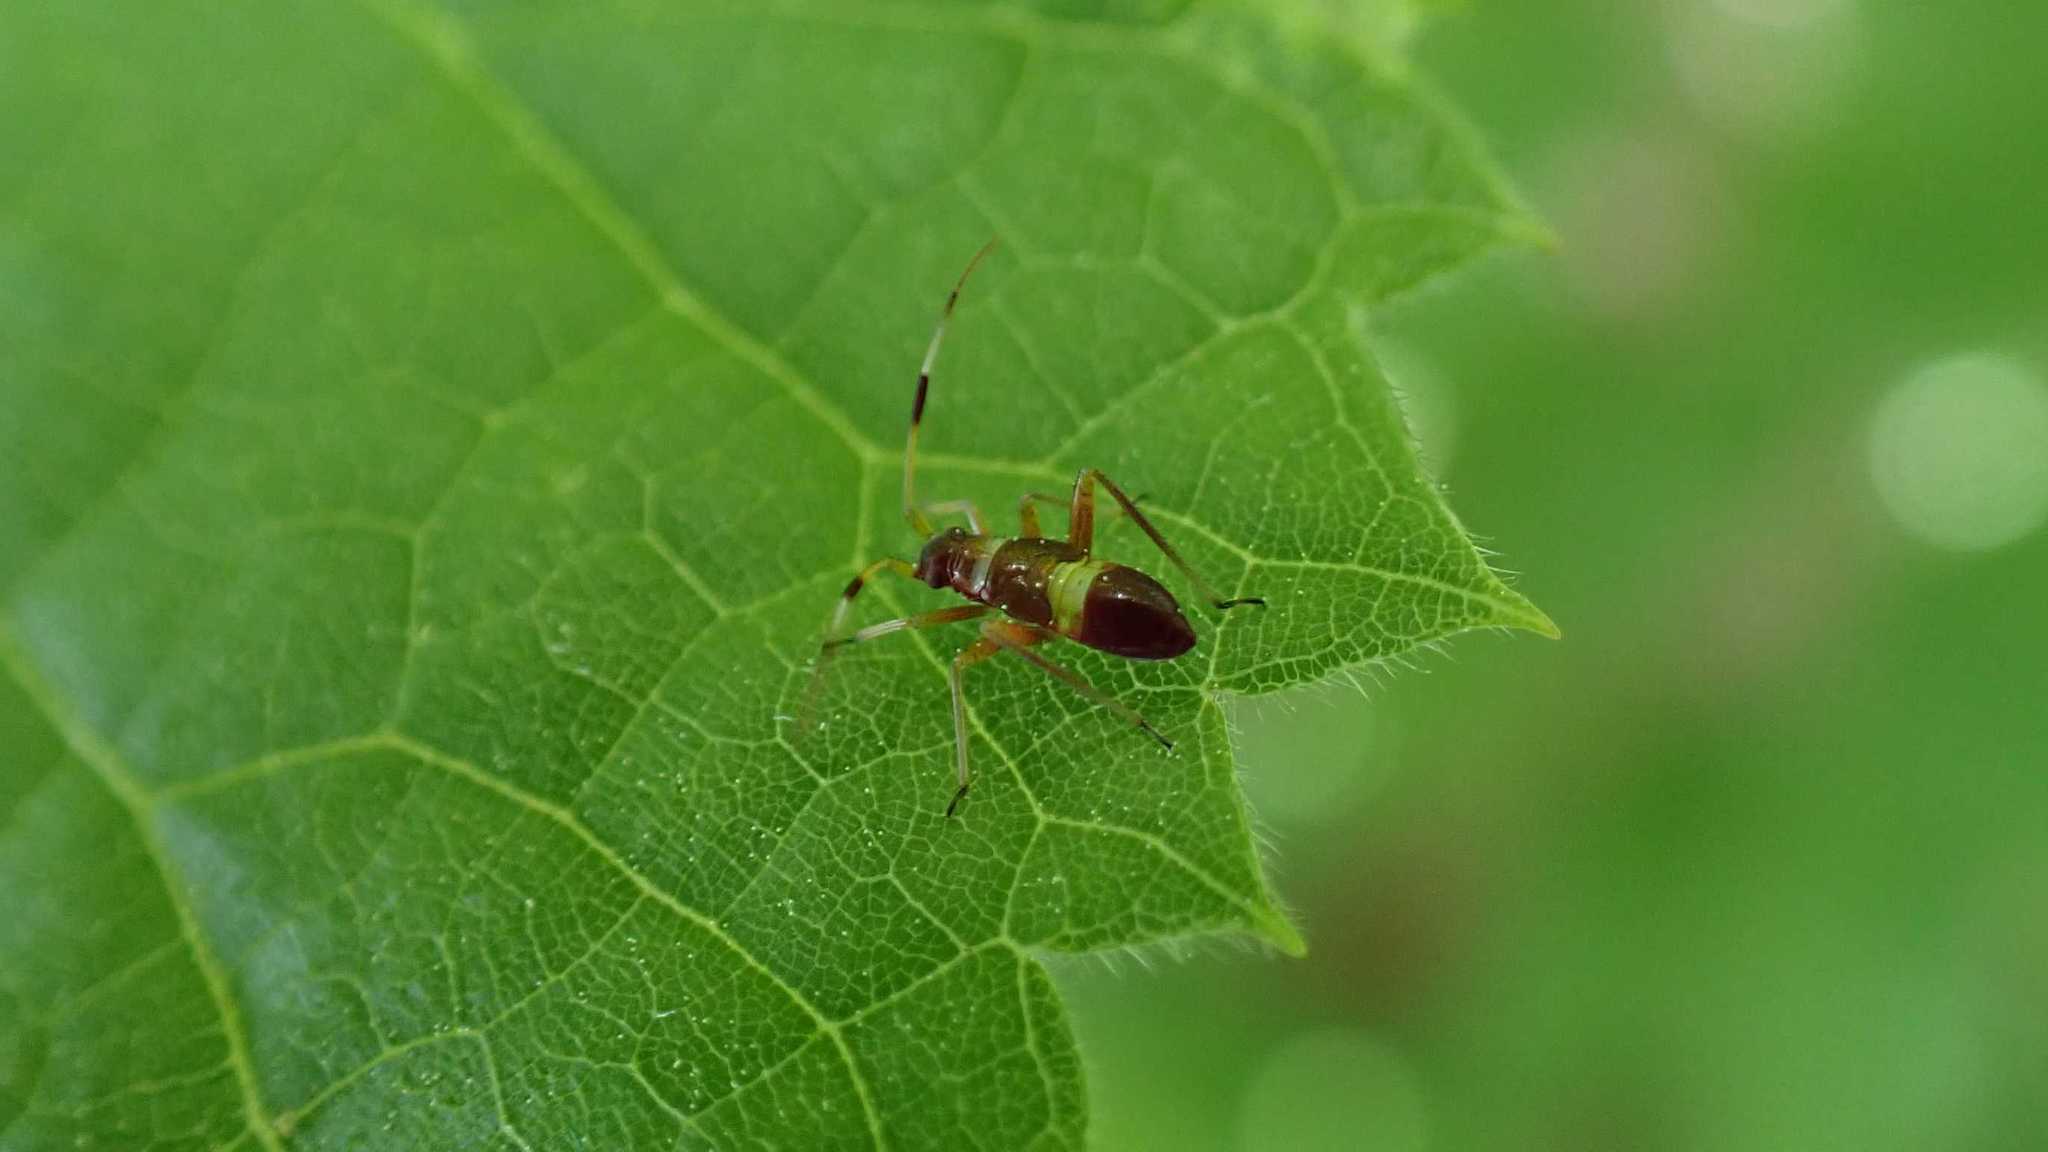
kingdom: Animalia
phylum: Arthropoda
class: Insecta
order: Hemiptera
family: Miridae
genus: Closterotomus
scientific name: Closterotomus biclavatus
